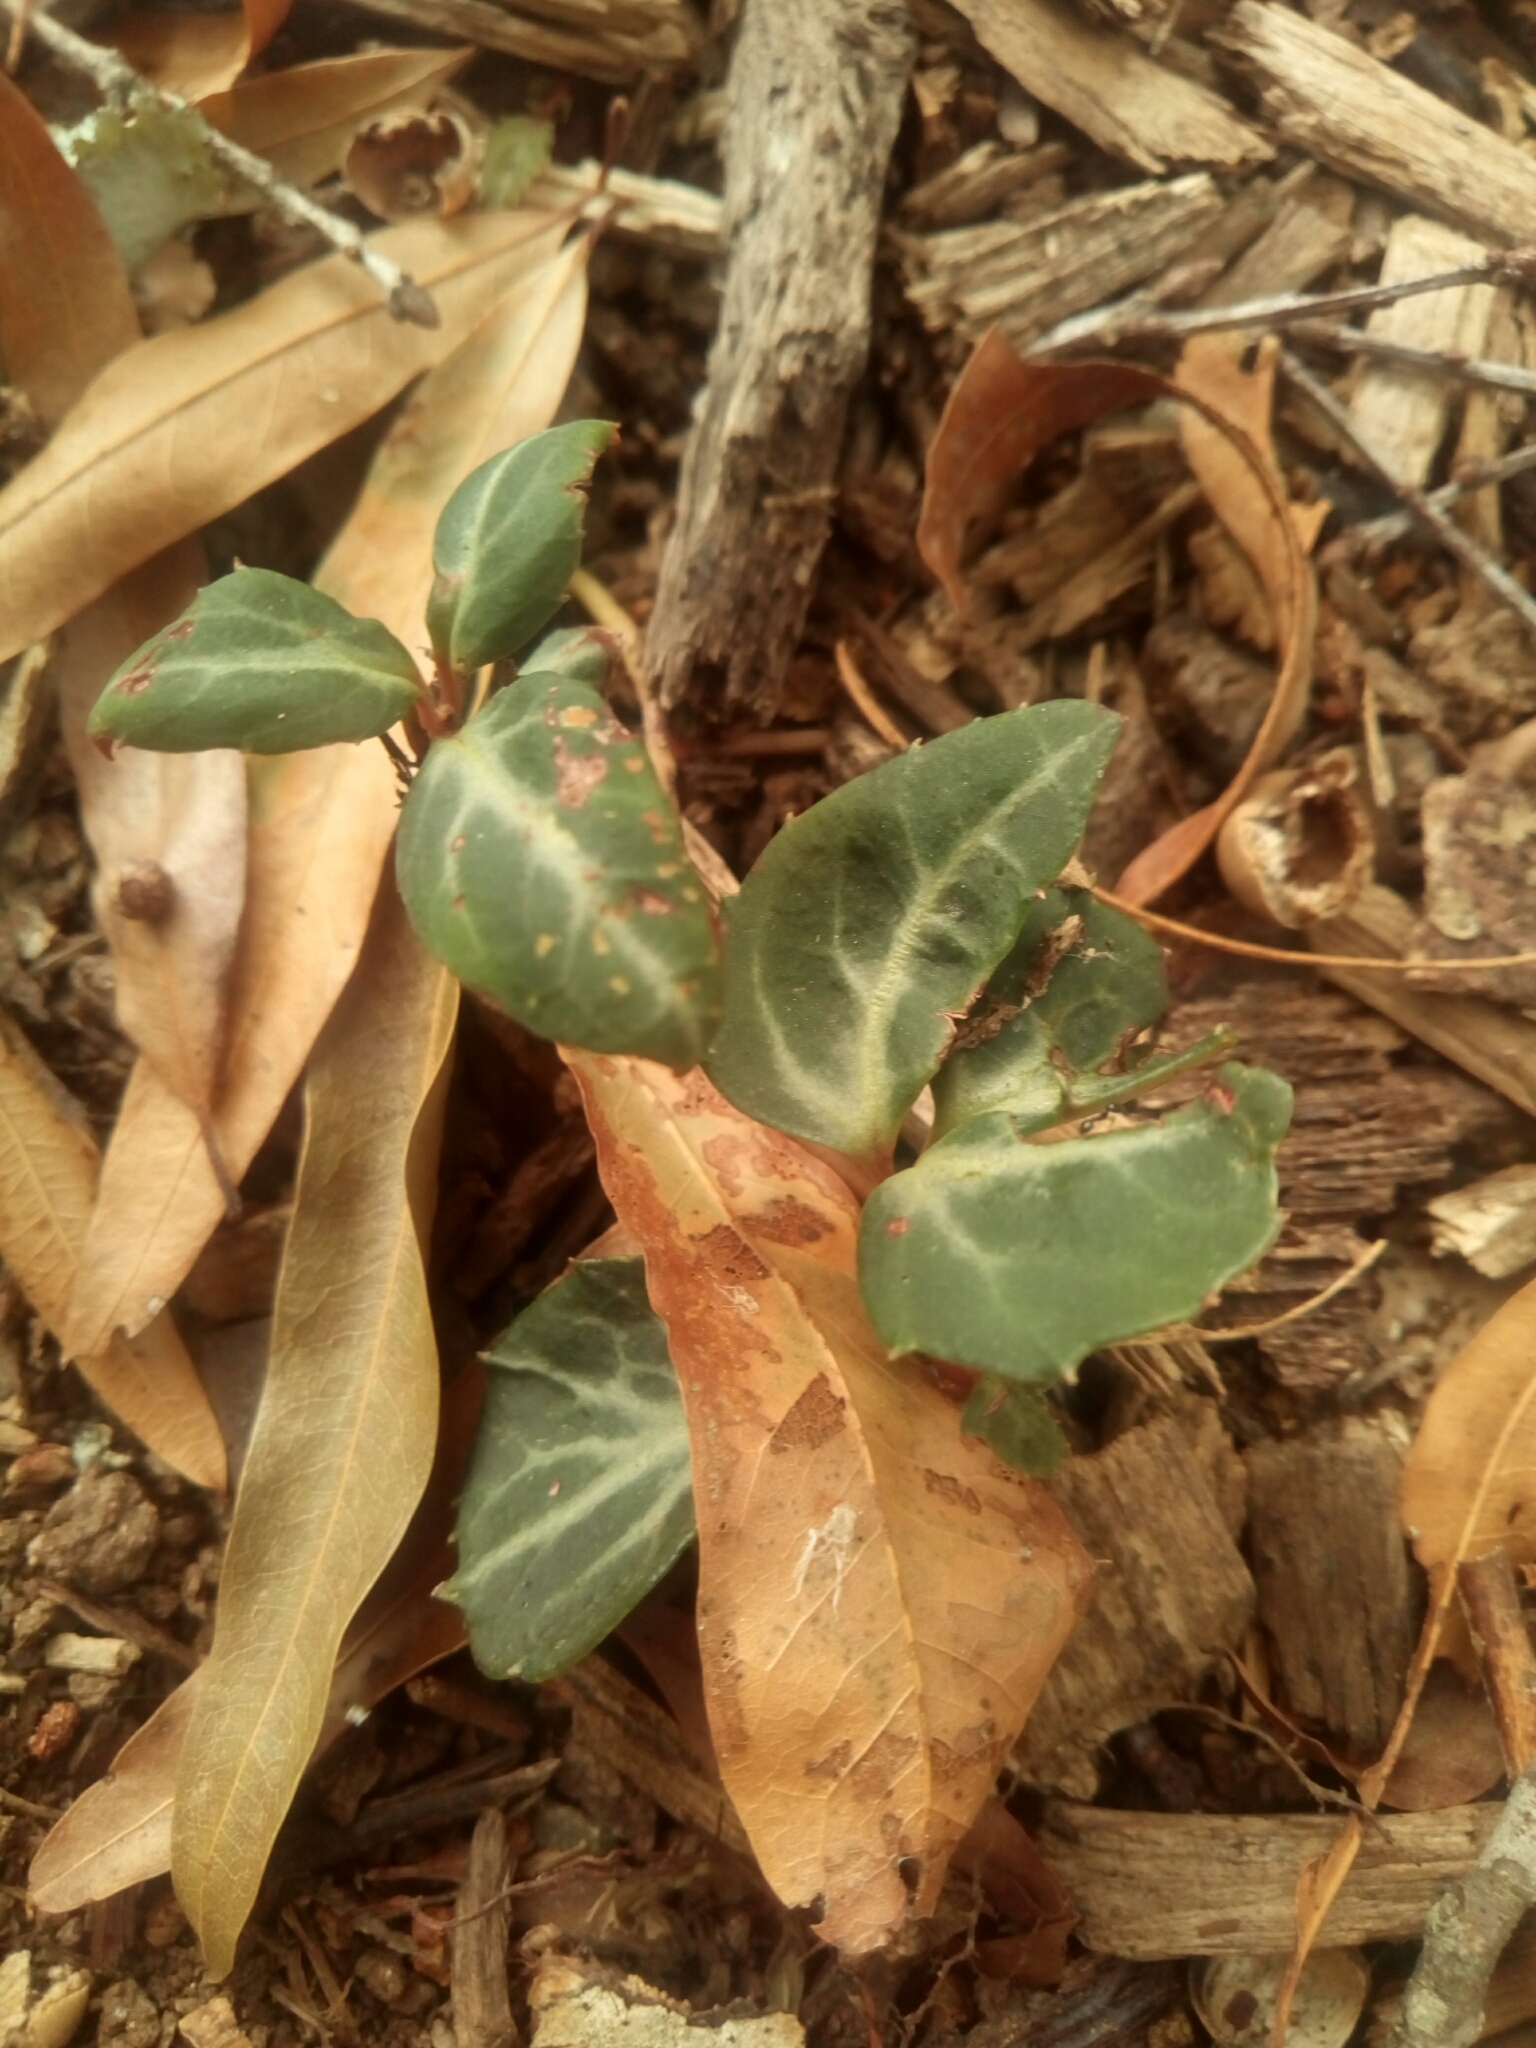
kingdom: Plantae
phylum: Tracheophyta
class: Magnoliopsida
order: Ericales
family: Ericaceae
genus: Chimaphila
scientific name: Chimaphila maculata
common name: Spotted pipsissewa
